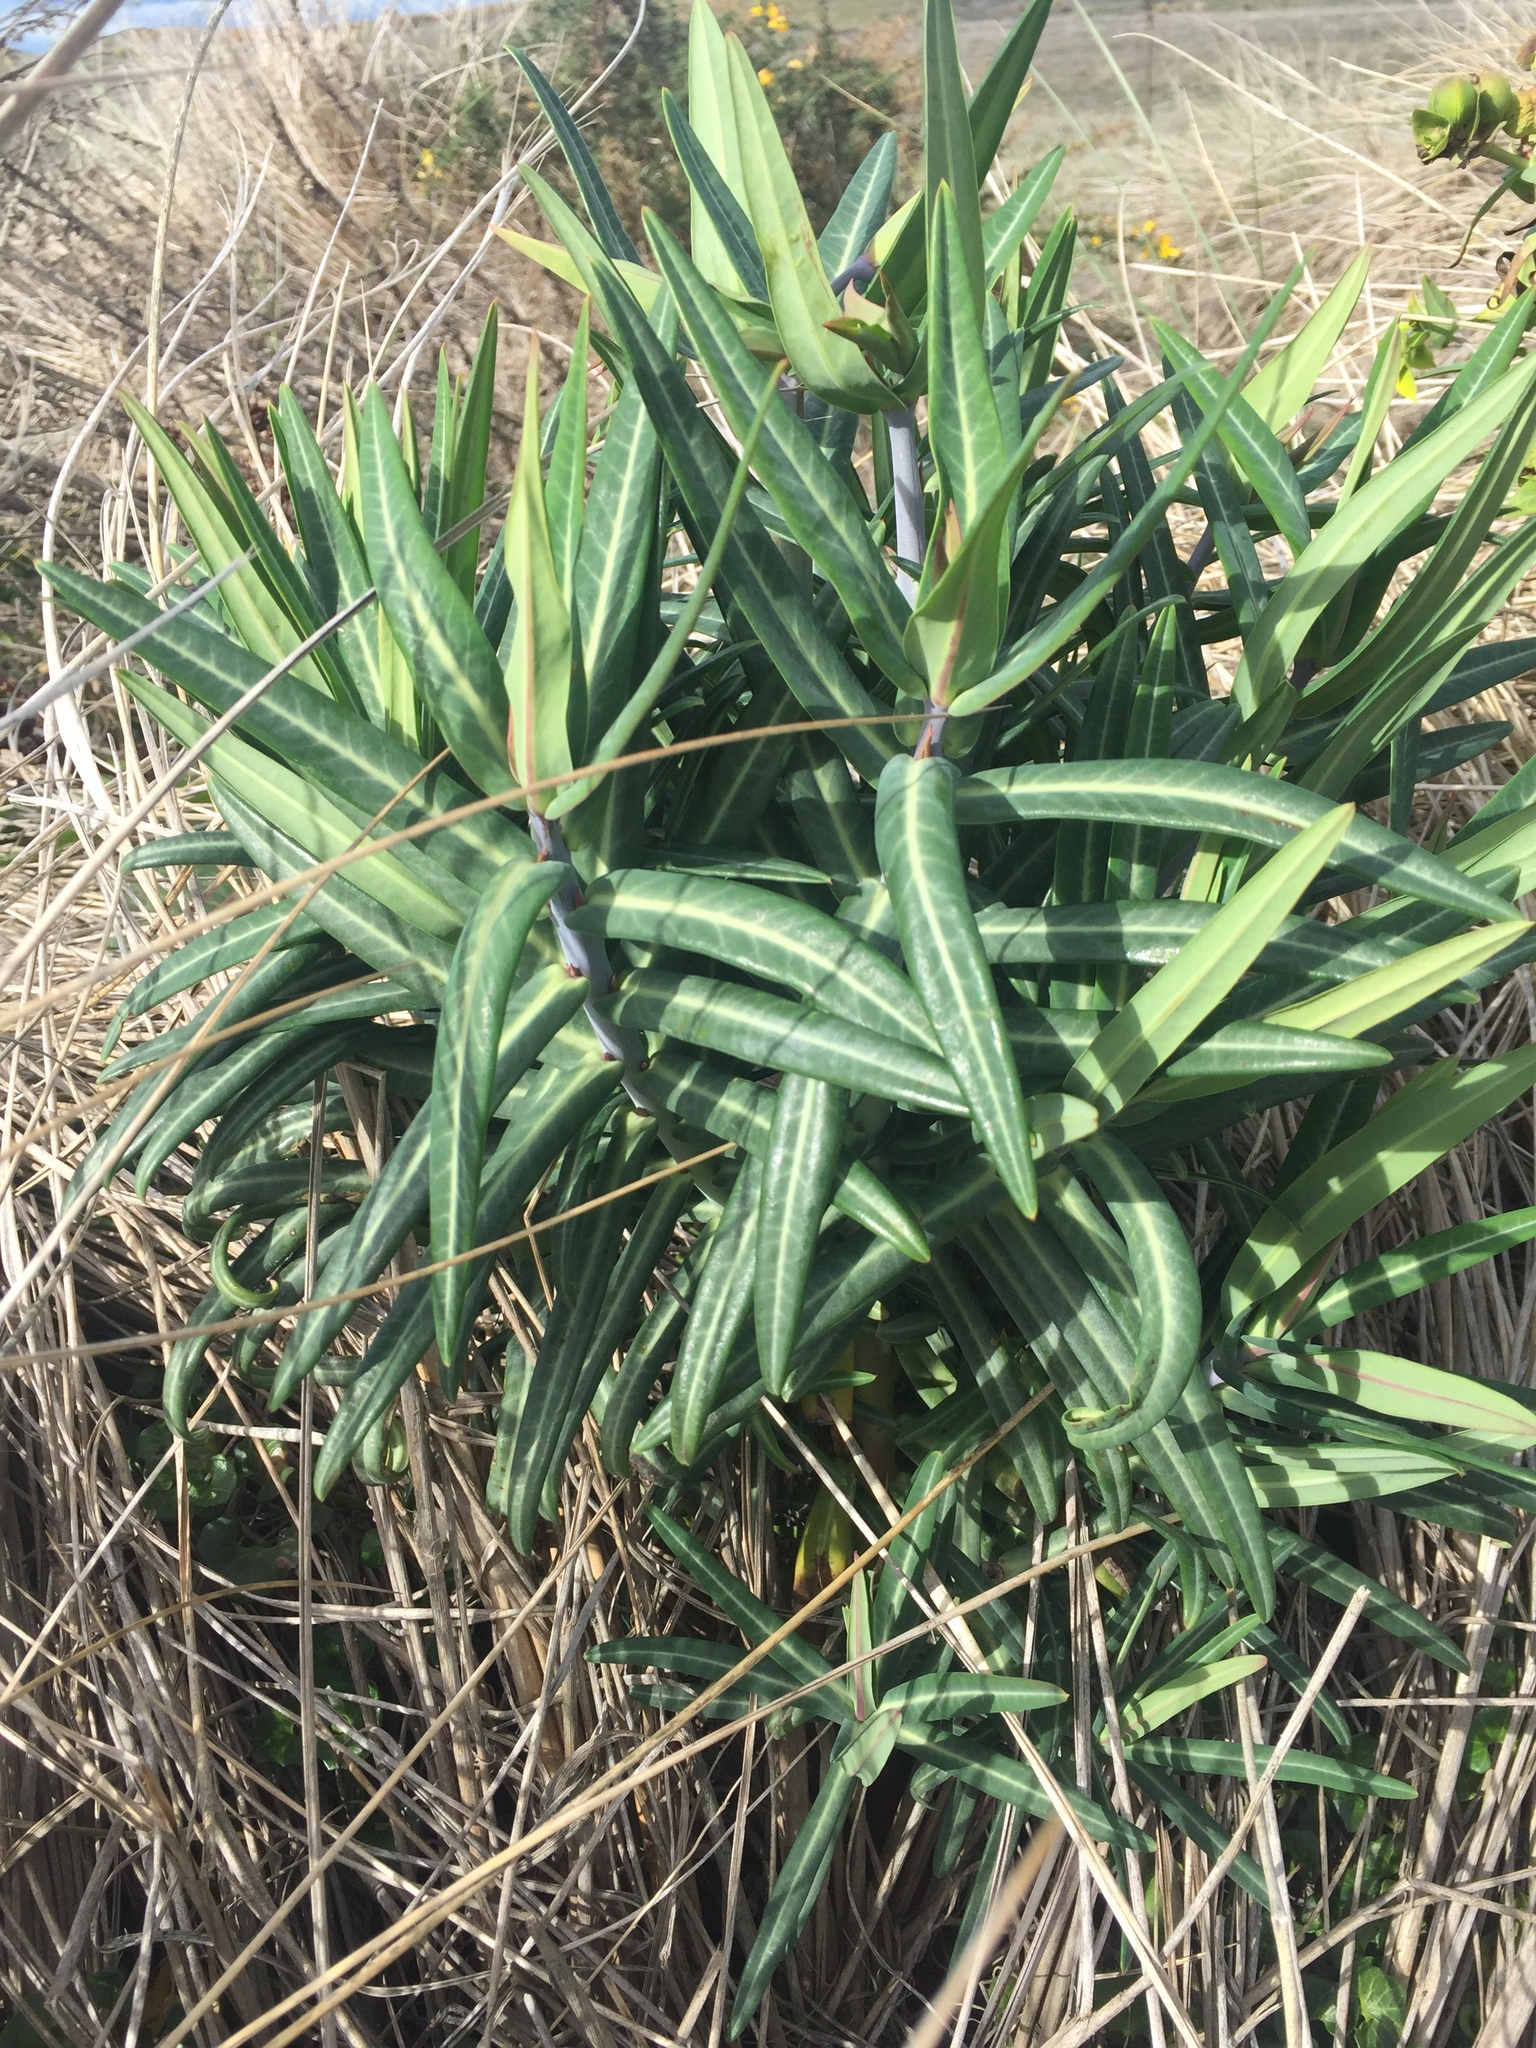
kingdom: Plantae
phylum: Tracheophyta
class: Magnoliopsida
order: Malpighiales
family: Euphorbiaceae
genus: Euphorbia
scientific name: Euphorbia lathyris
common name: Caper spurge
